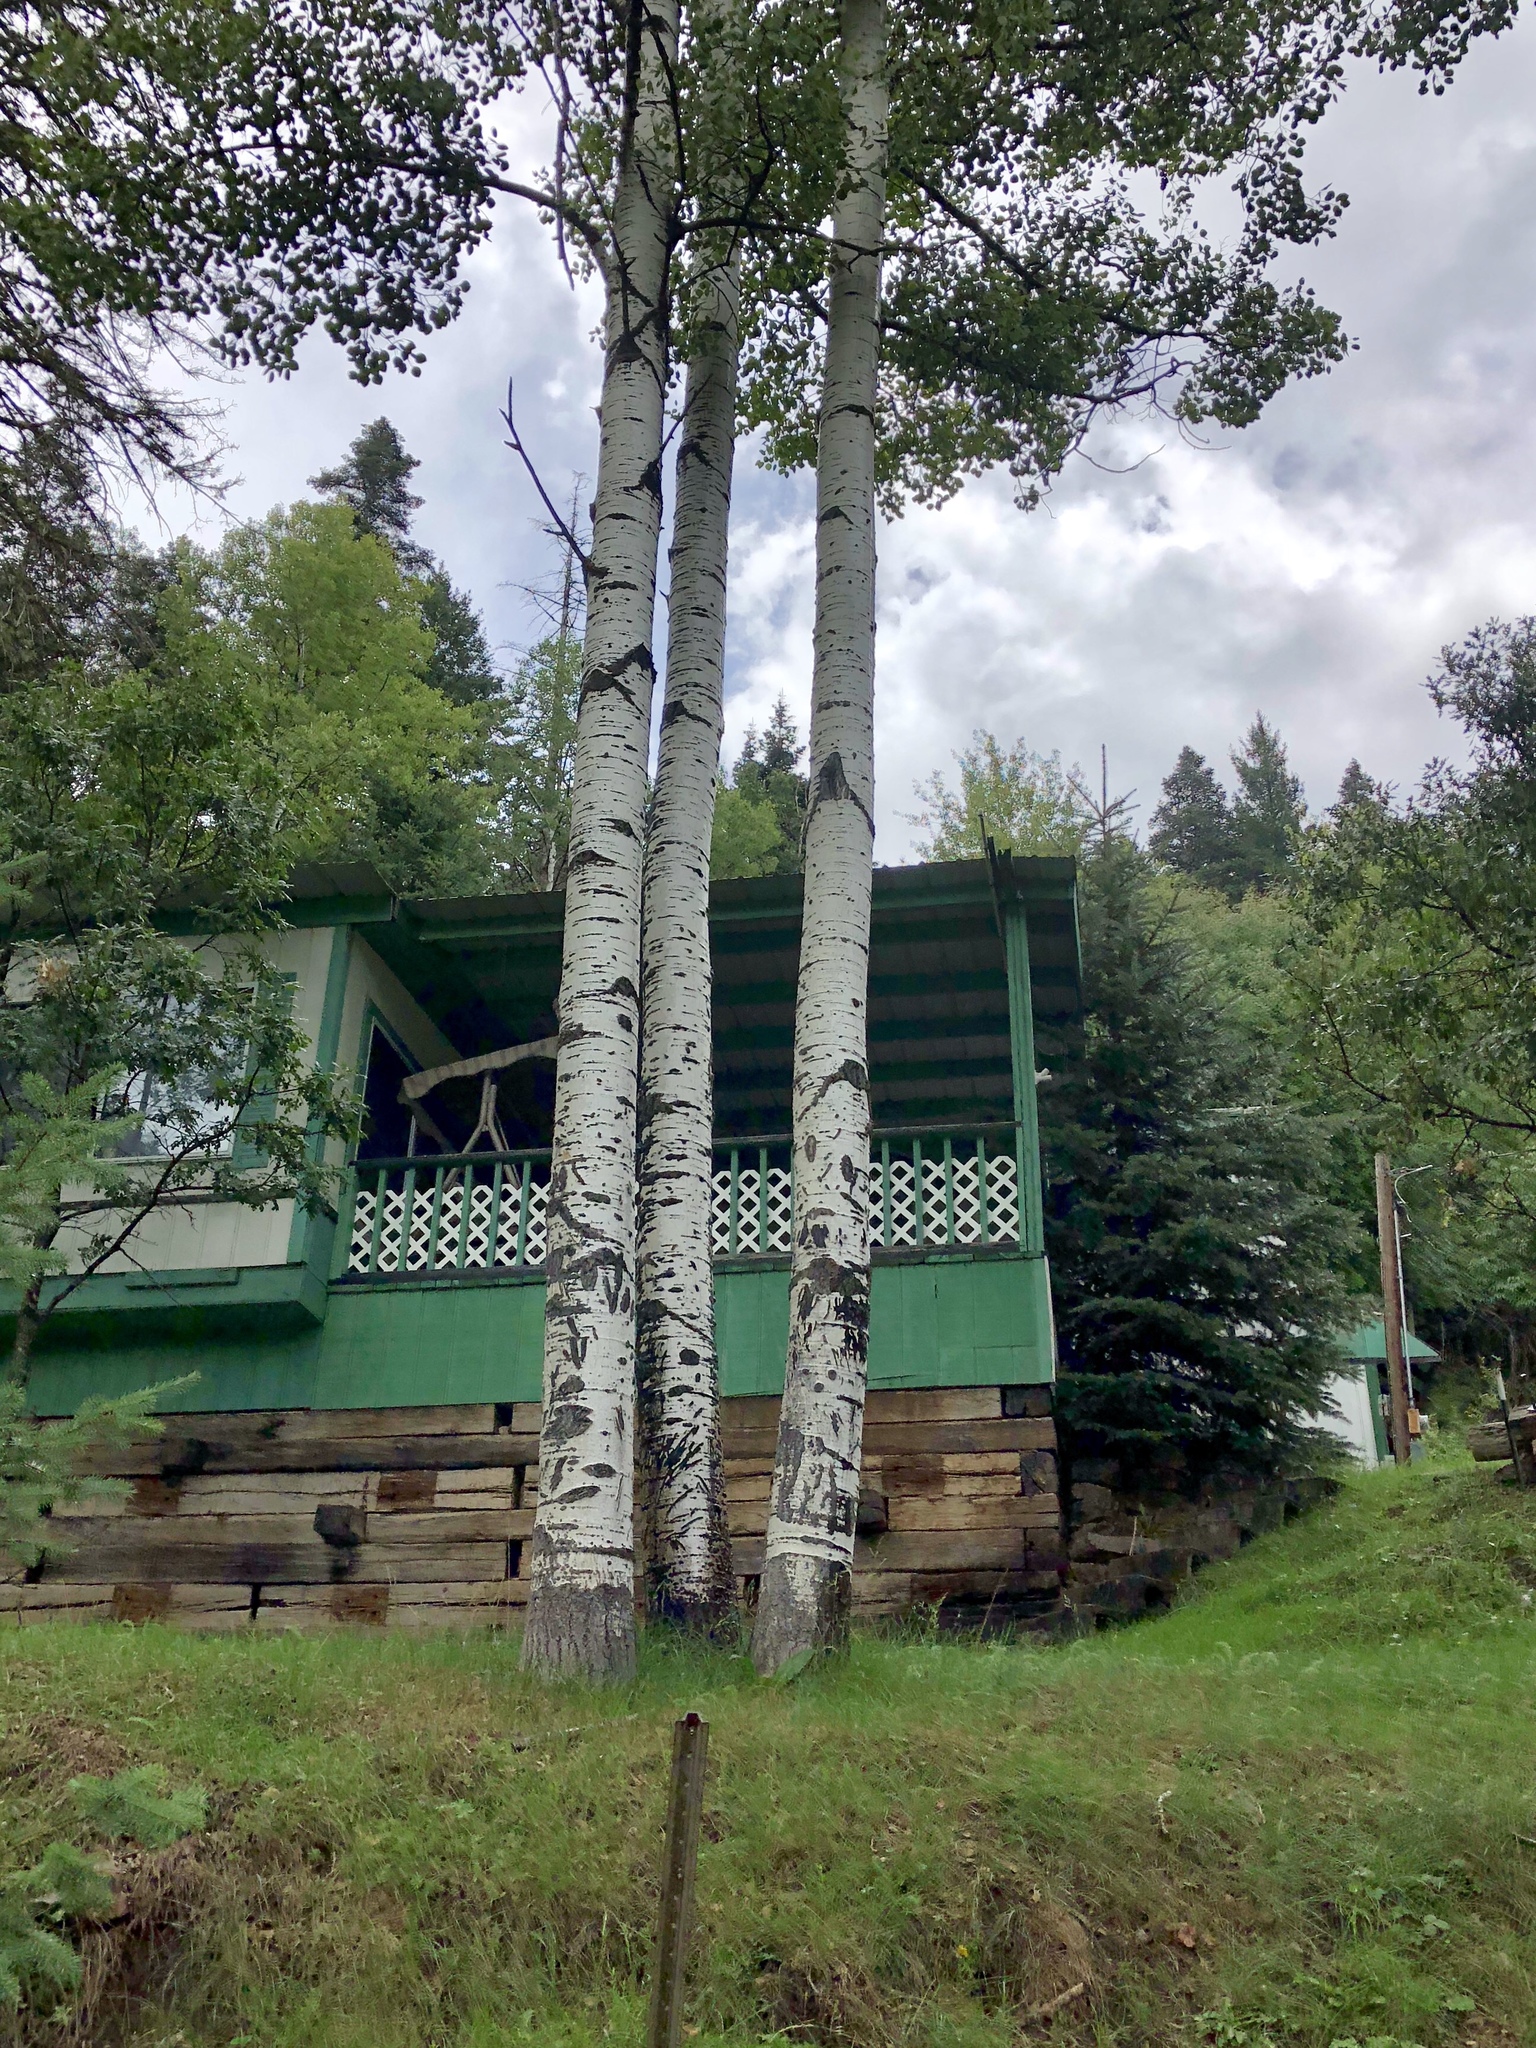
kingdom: Plantae
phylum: Tracheophyta
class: Magnoliopsida
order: Malpighiales
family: Salicaceae
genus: Populus
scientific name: Populus tremuloides
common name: Quaking aspen
